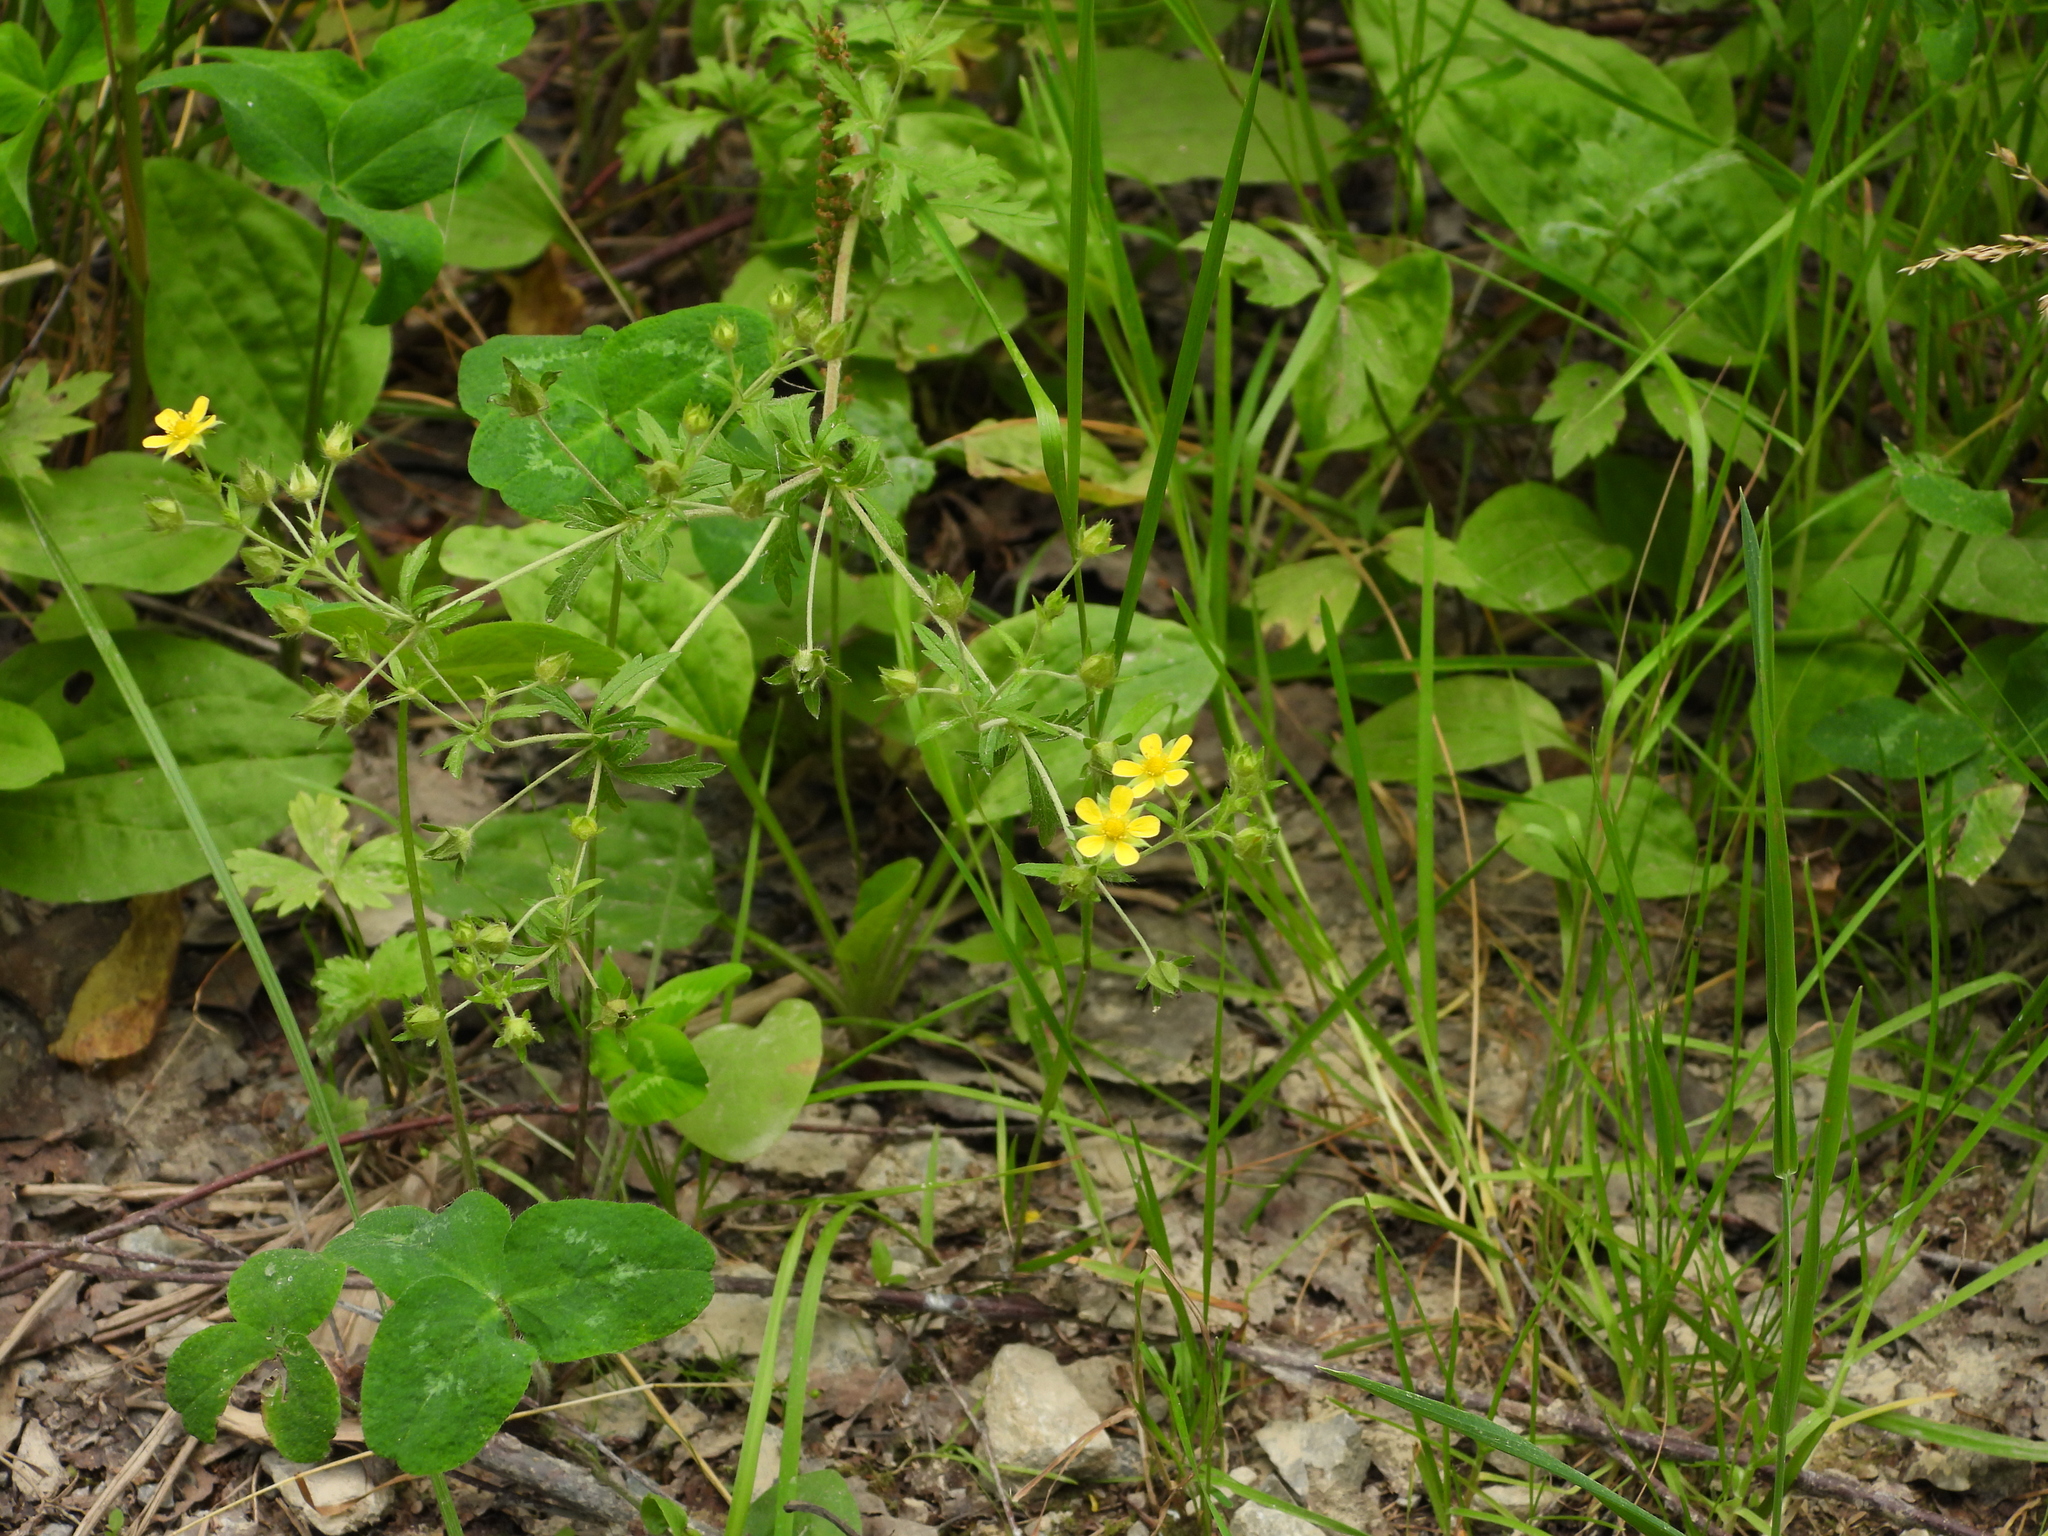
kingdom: Plantae
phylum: Tracheophyta
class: Magnoliopsida
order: Rosales
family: Rosaceae
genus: Potentilla
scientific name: Potentilla norvegica
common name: Ternate-leaved cinquefoil
